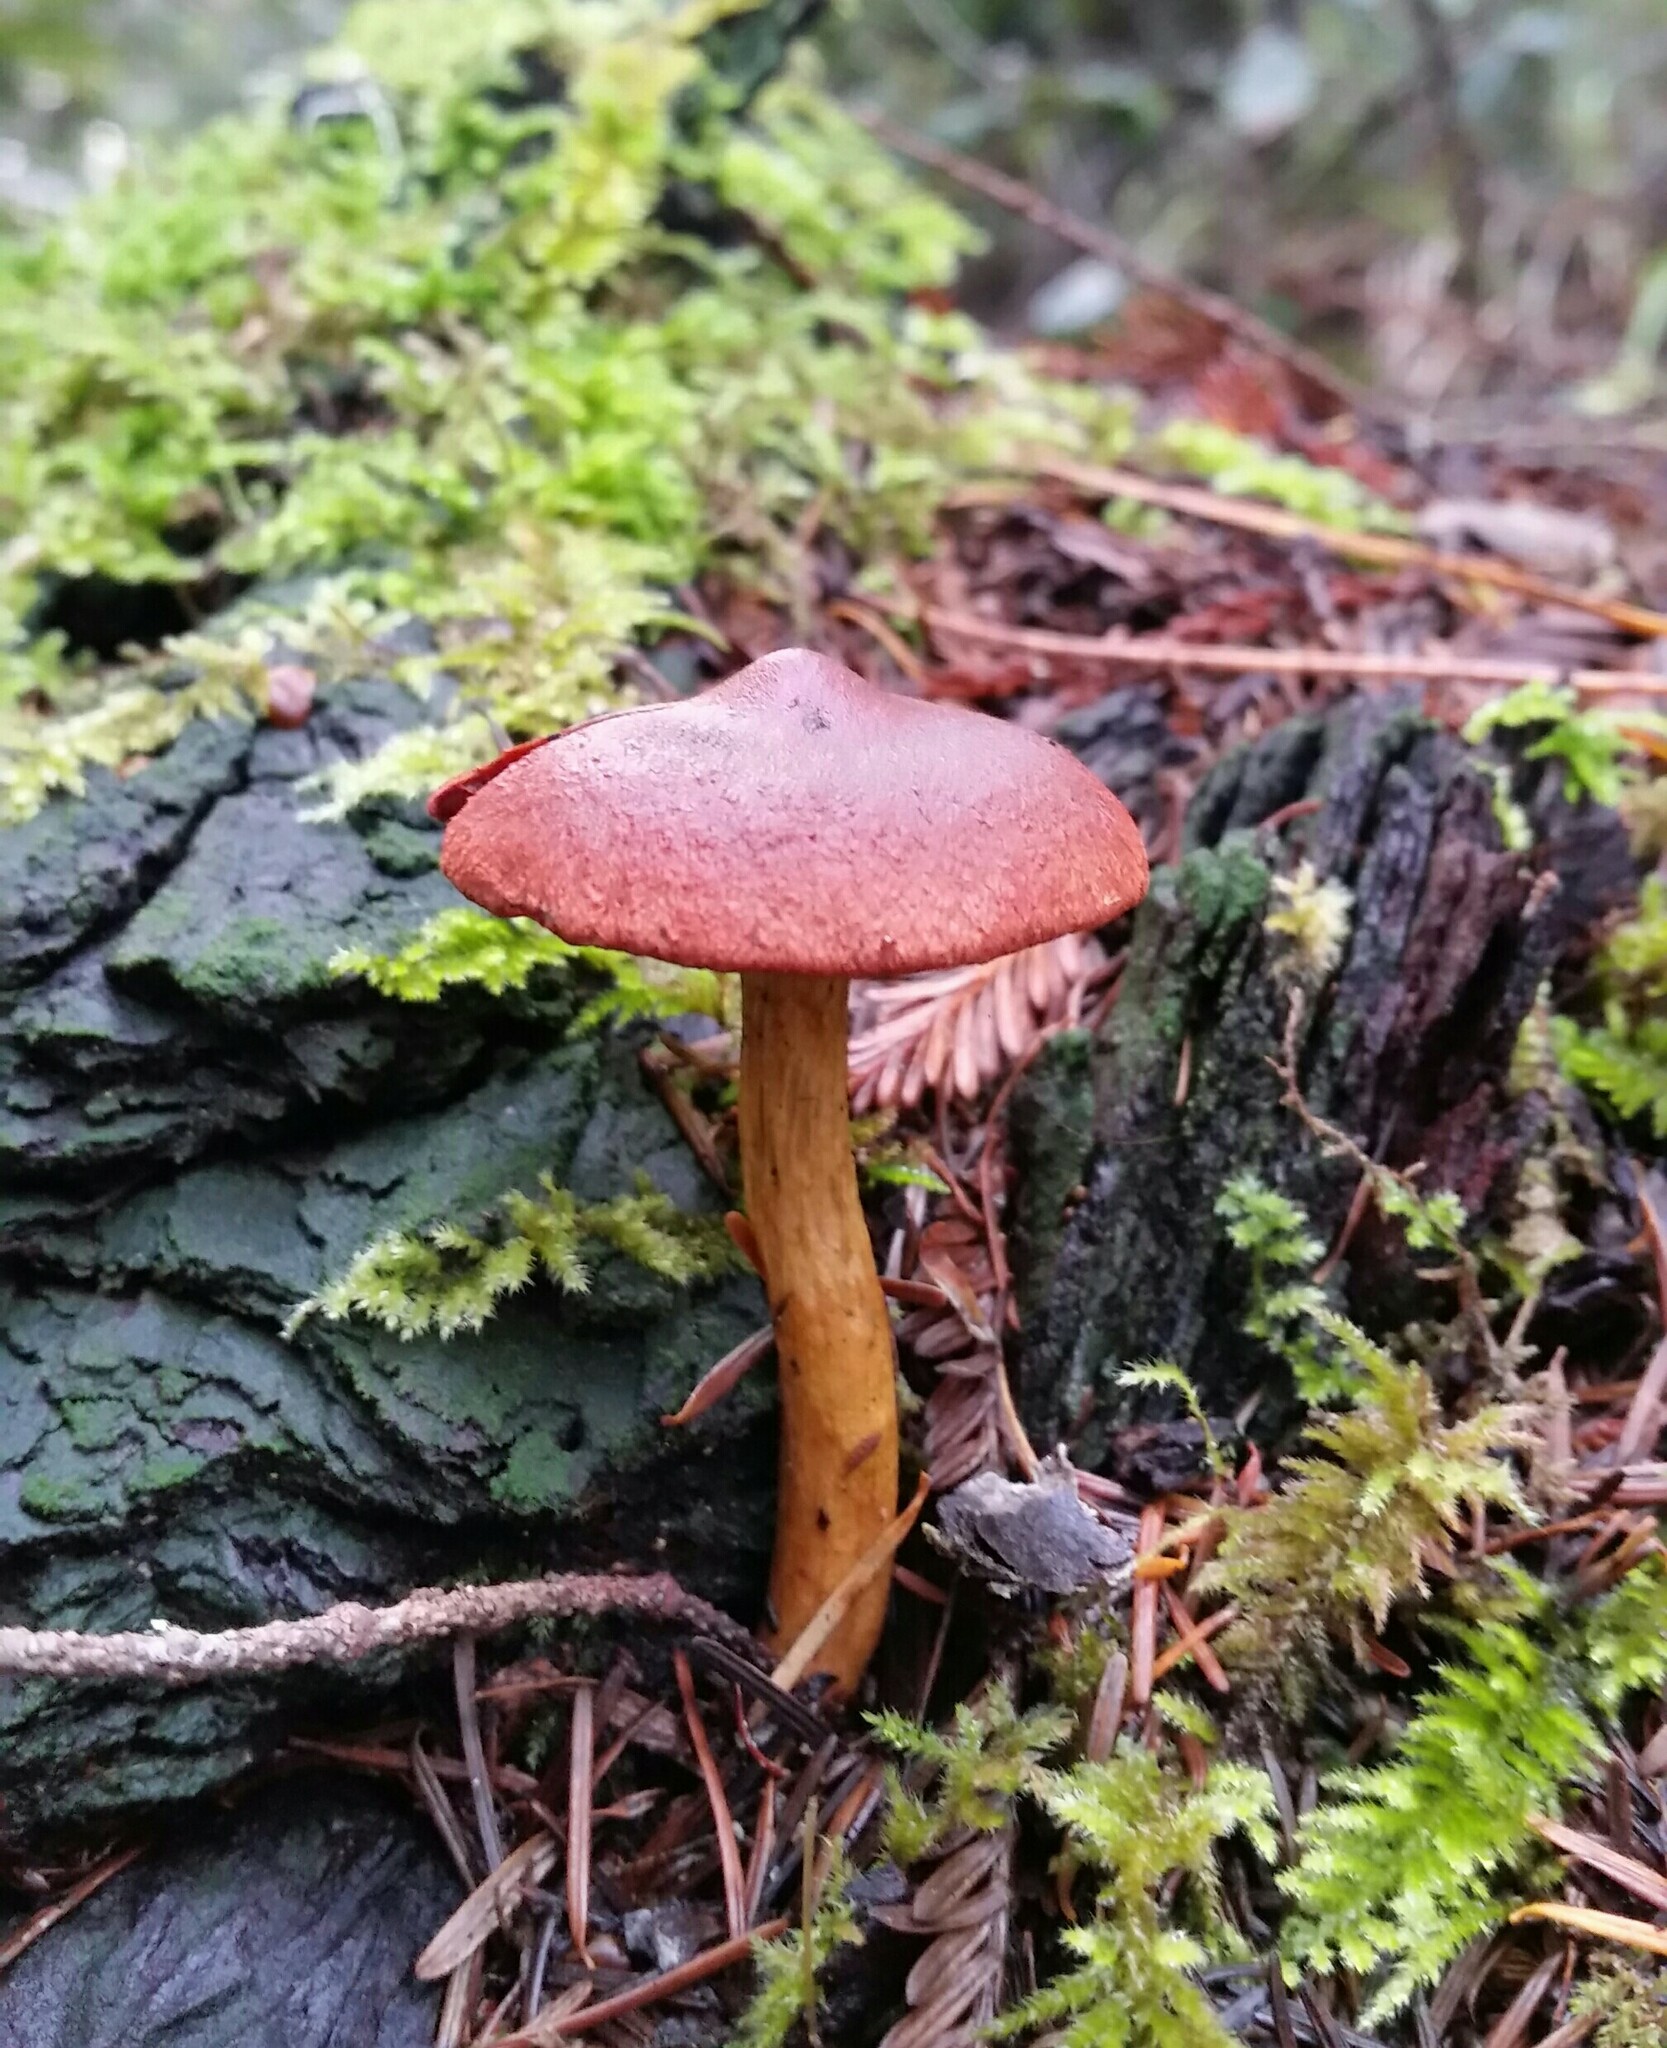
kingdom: Fungi
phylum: Basidiomycota
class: Agaricomycetes
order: Agaricales
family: Cortinariaceae
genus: Cortinarius
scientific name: Cortinarius smithii
